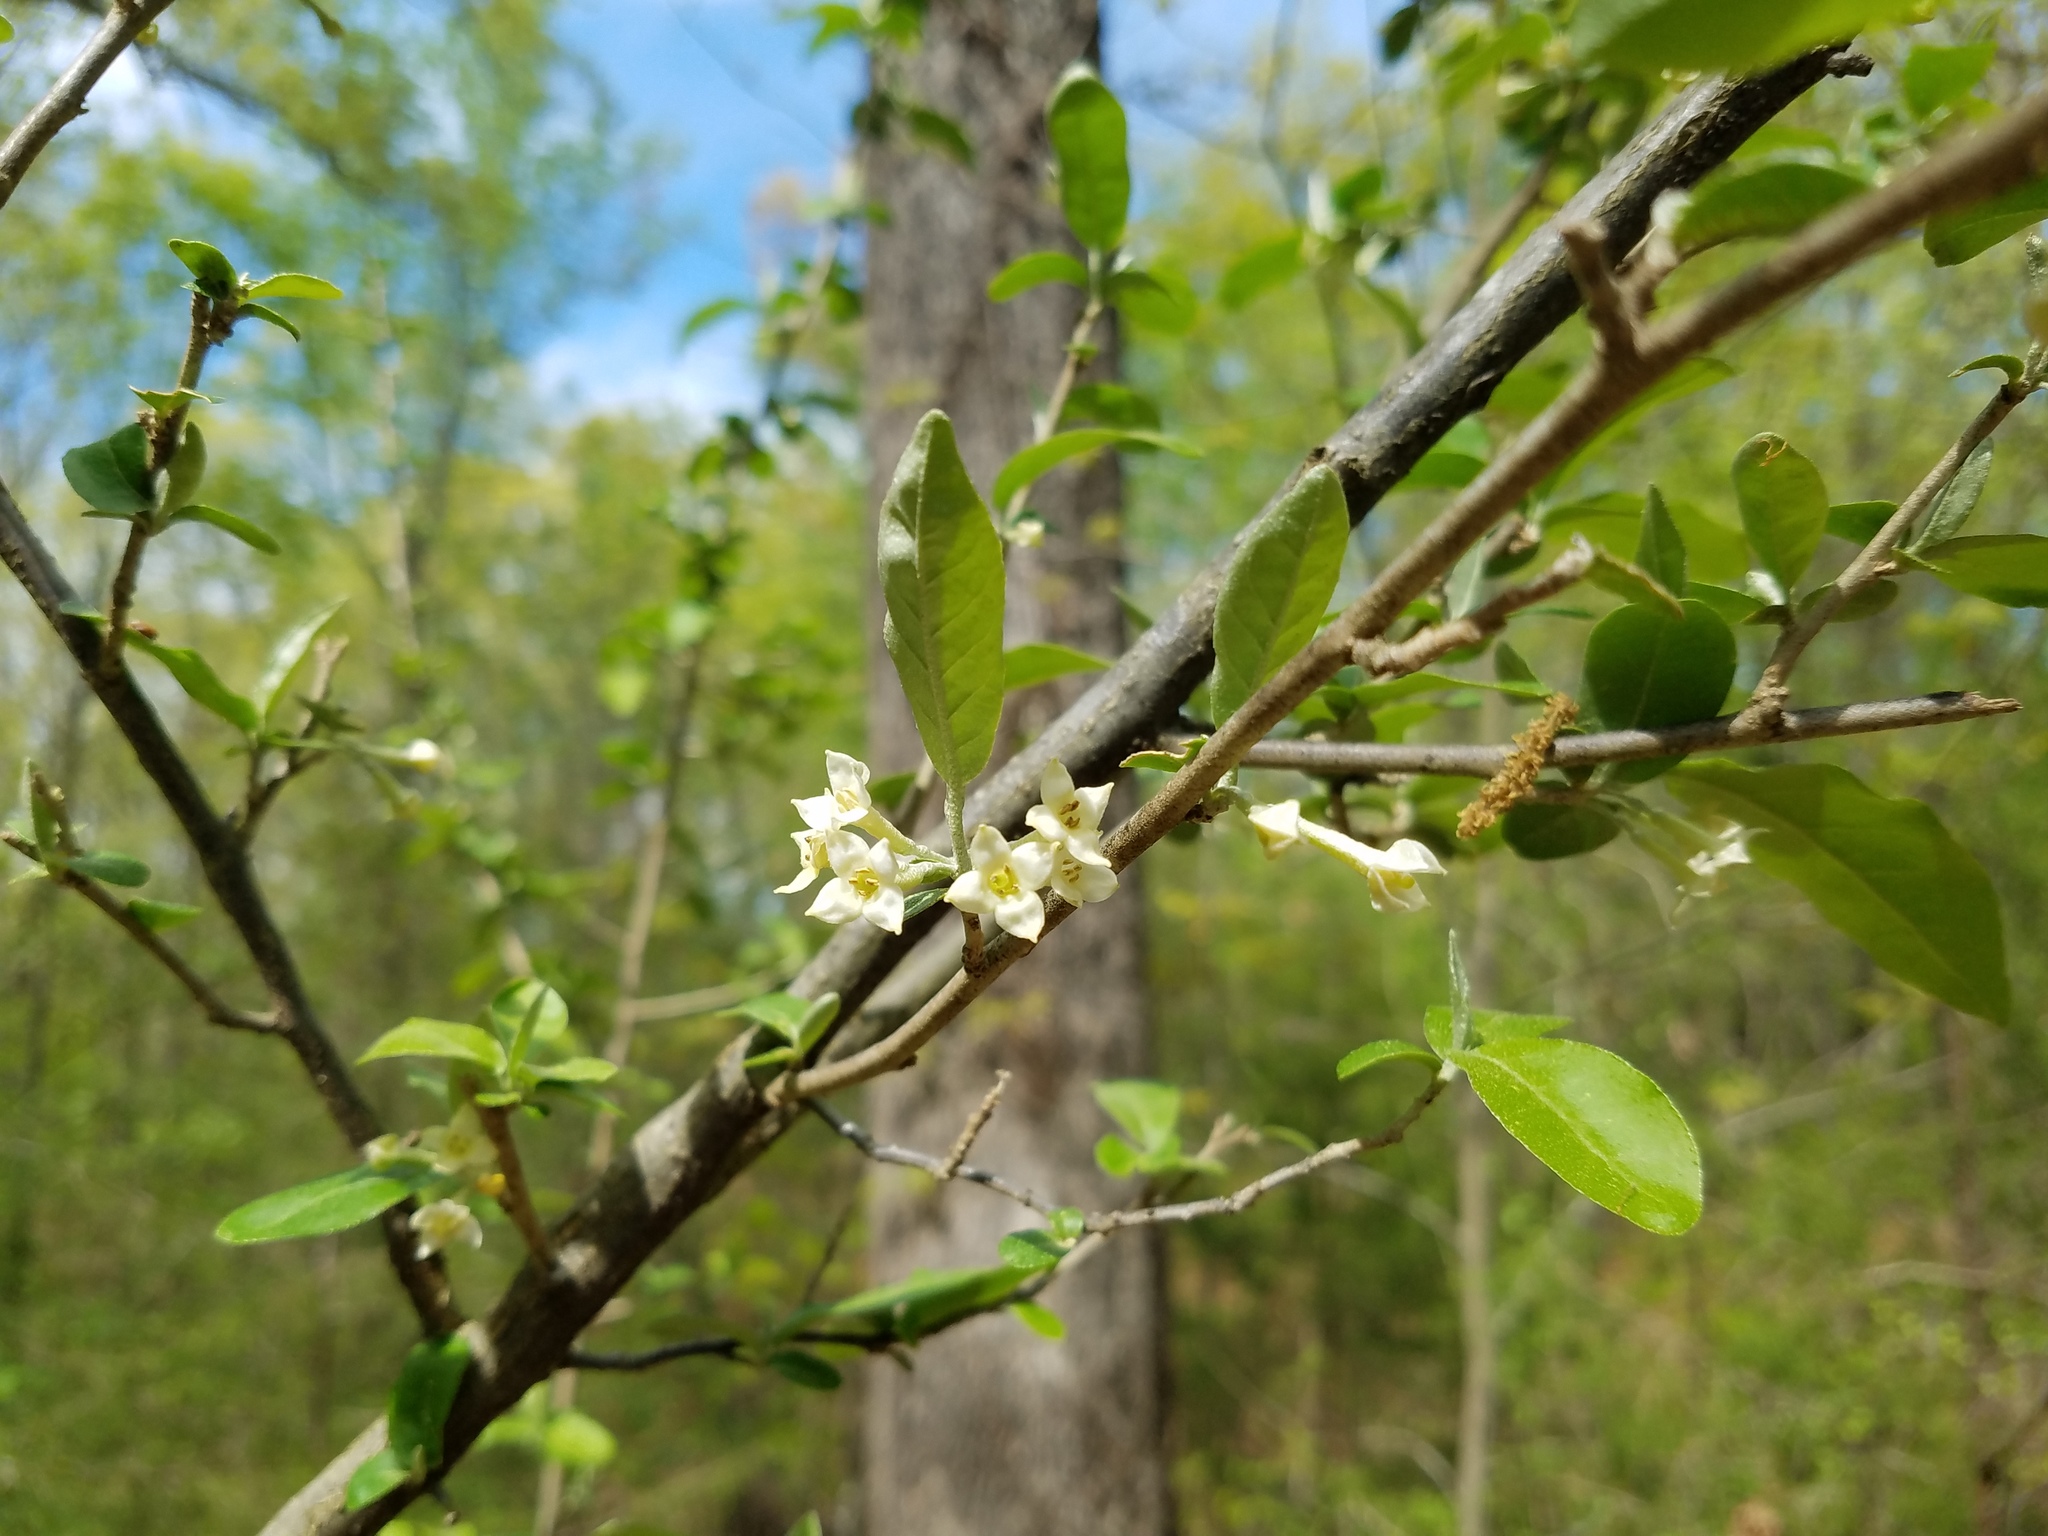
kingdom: Plantae
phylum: Tracheophyta
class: Magnoliopsida
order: Rosales
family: Elaeagnaceae
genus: Elaeagnus
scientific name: Elaeagnus umbellata
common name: Autumn olive
